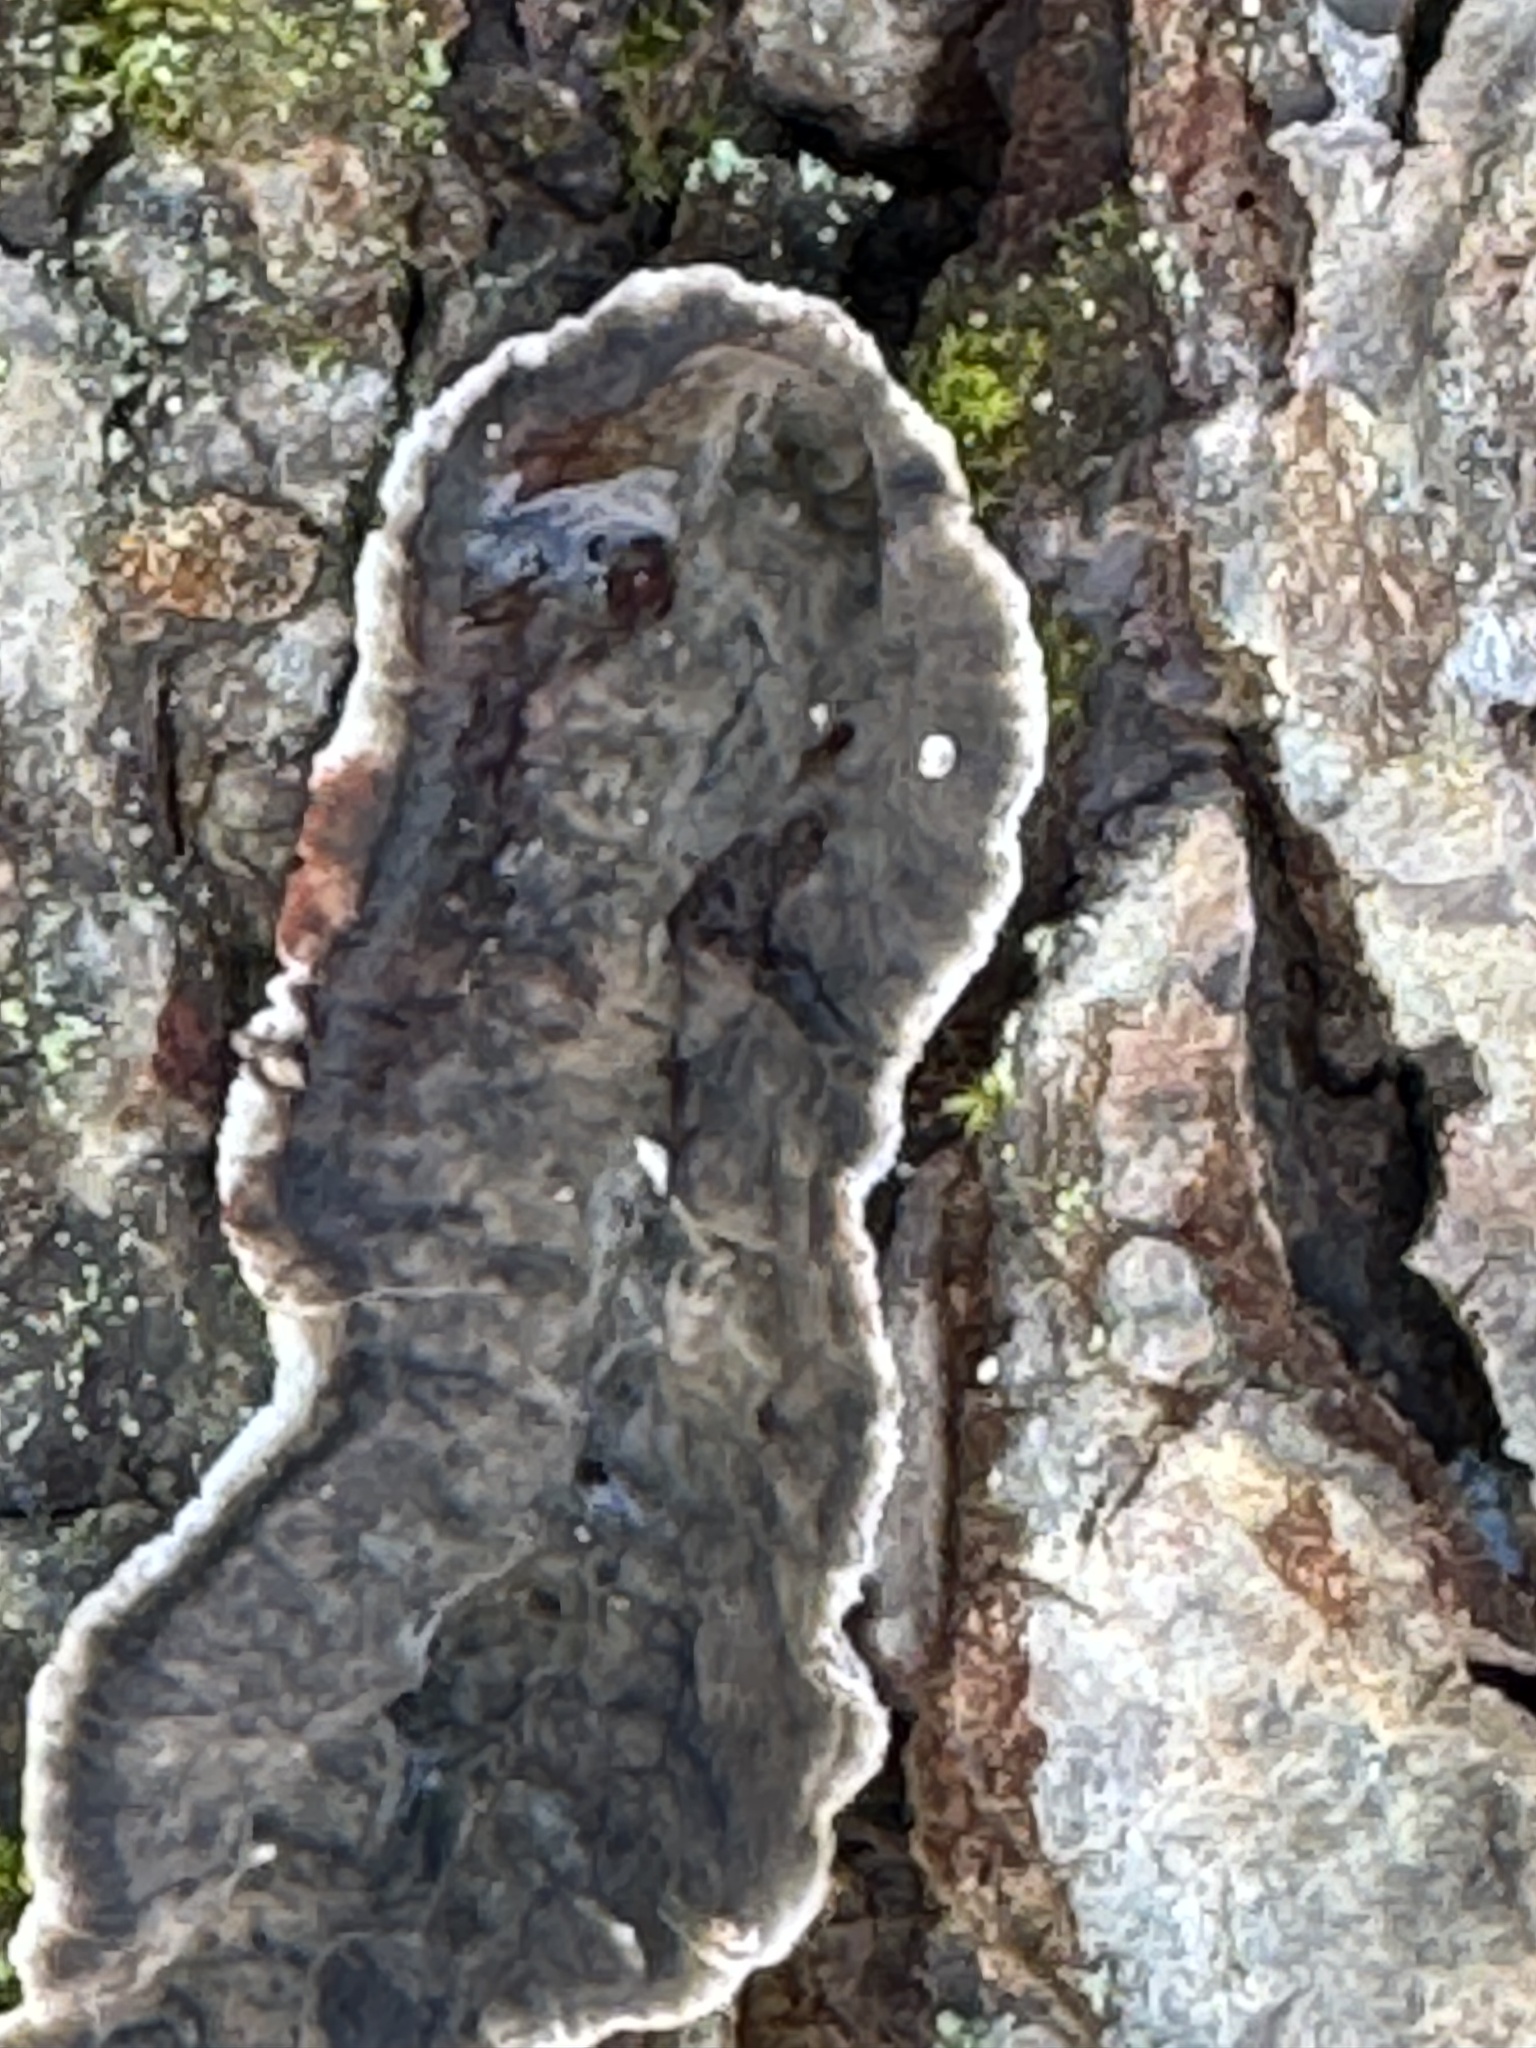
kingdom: Fungi
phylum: Basidiomycota
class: Agaricomycetes
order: Russulales
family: Stereaceae
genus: Stereum
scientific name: Stereum sanguinolentum
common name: Bleeding conifer crust
